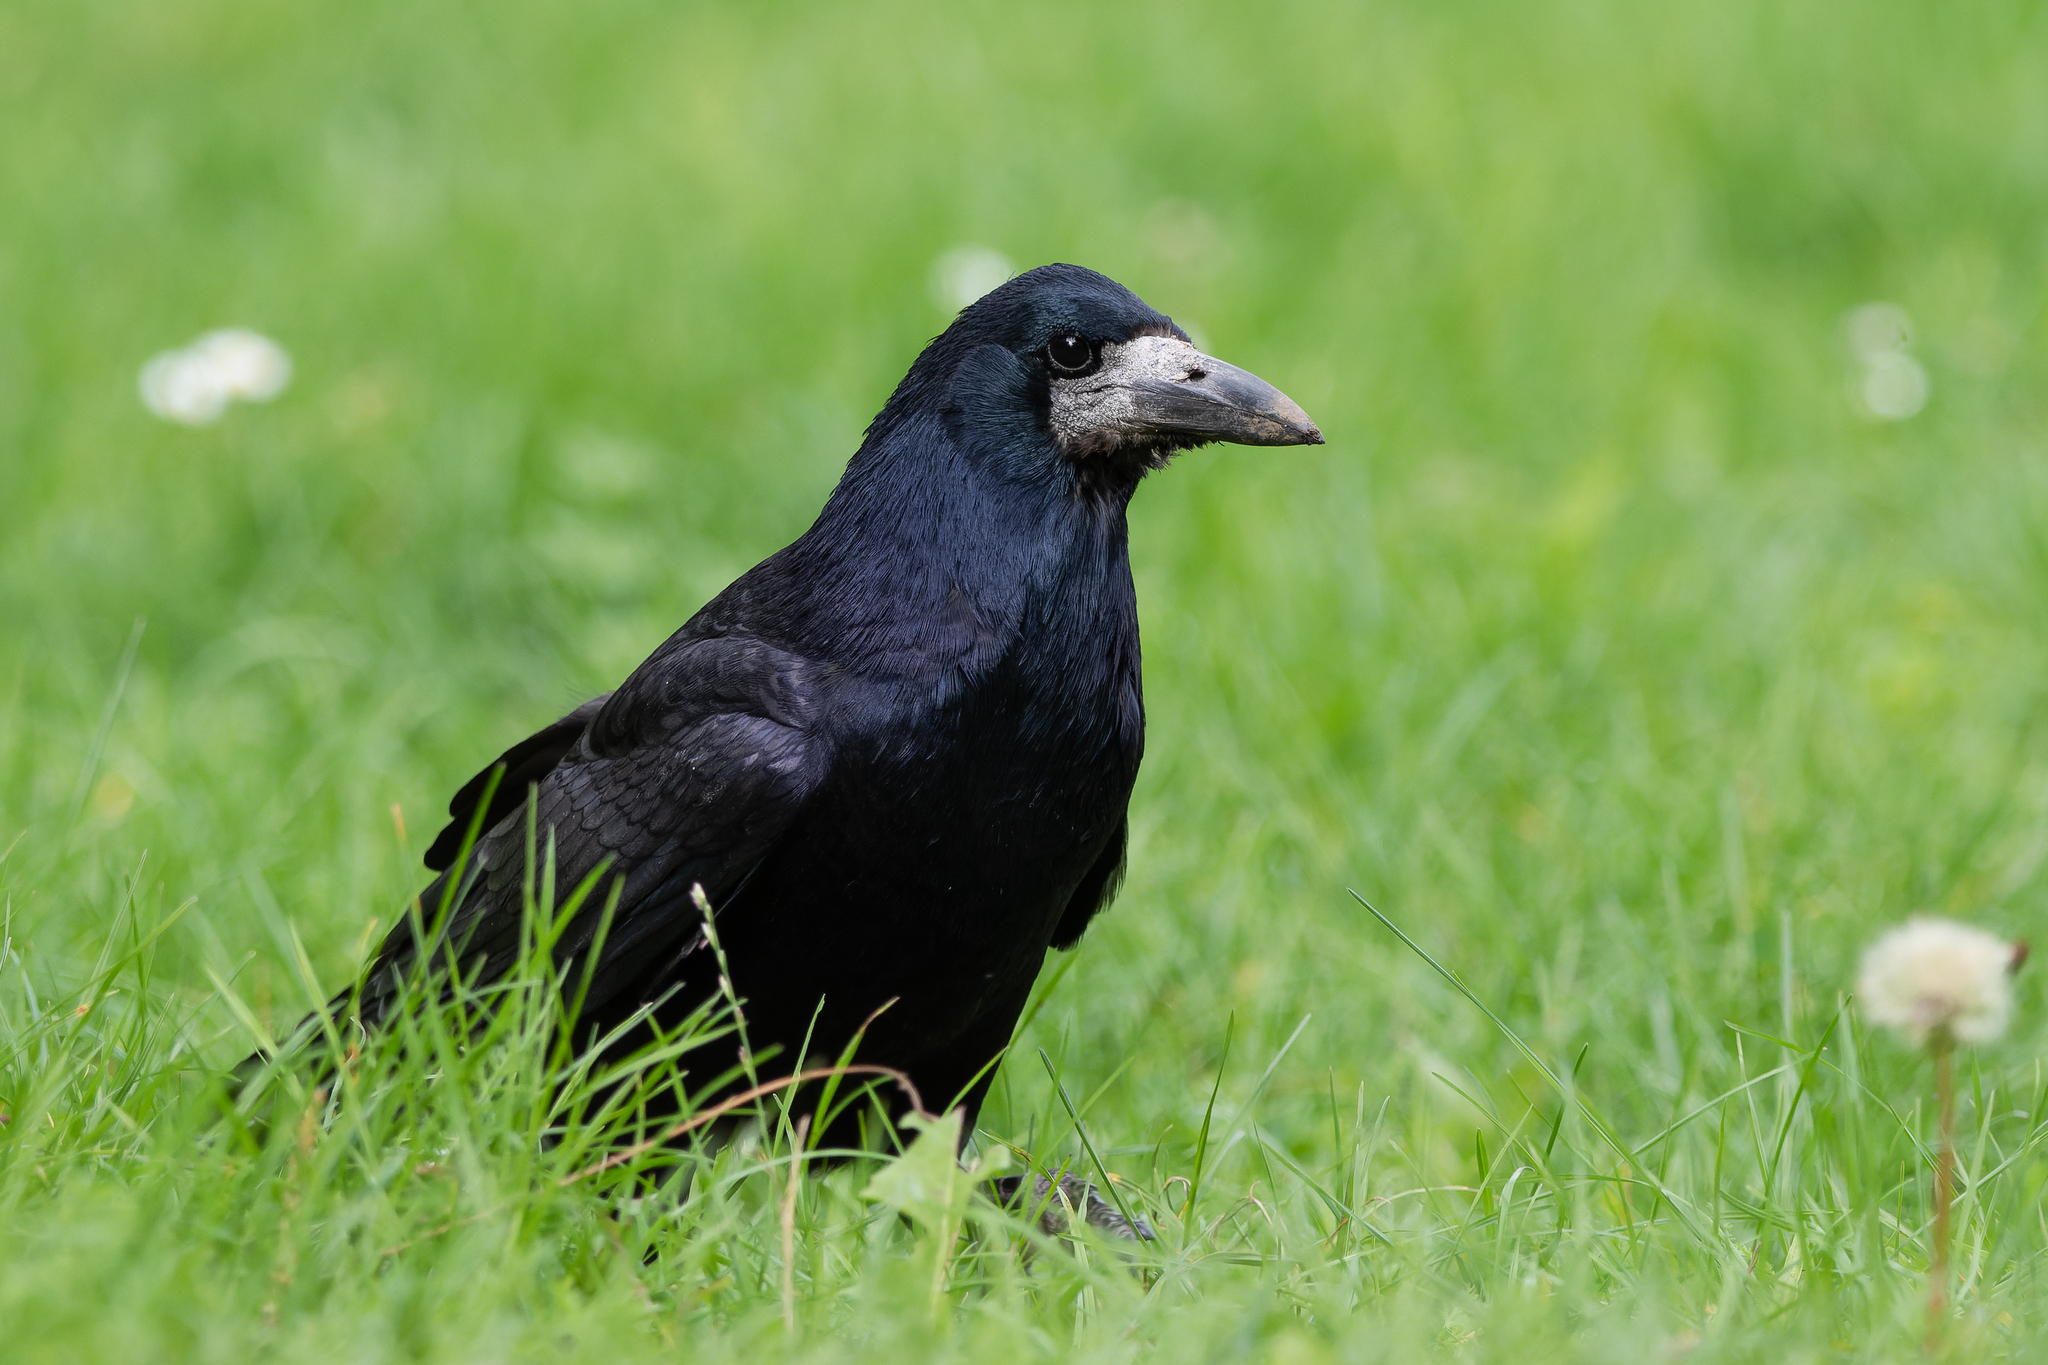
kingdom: Animalia
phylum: Chordata
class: Aves
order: Passeriformes
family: Corvidae
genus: Corvus
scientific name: Corvus frugilegus
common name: Rook
